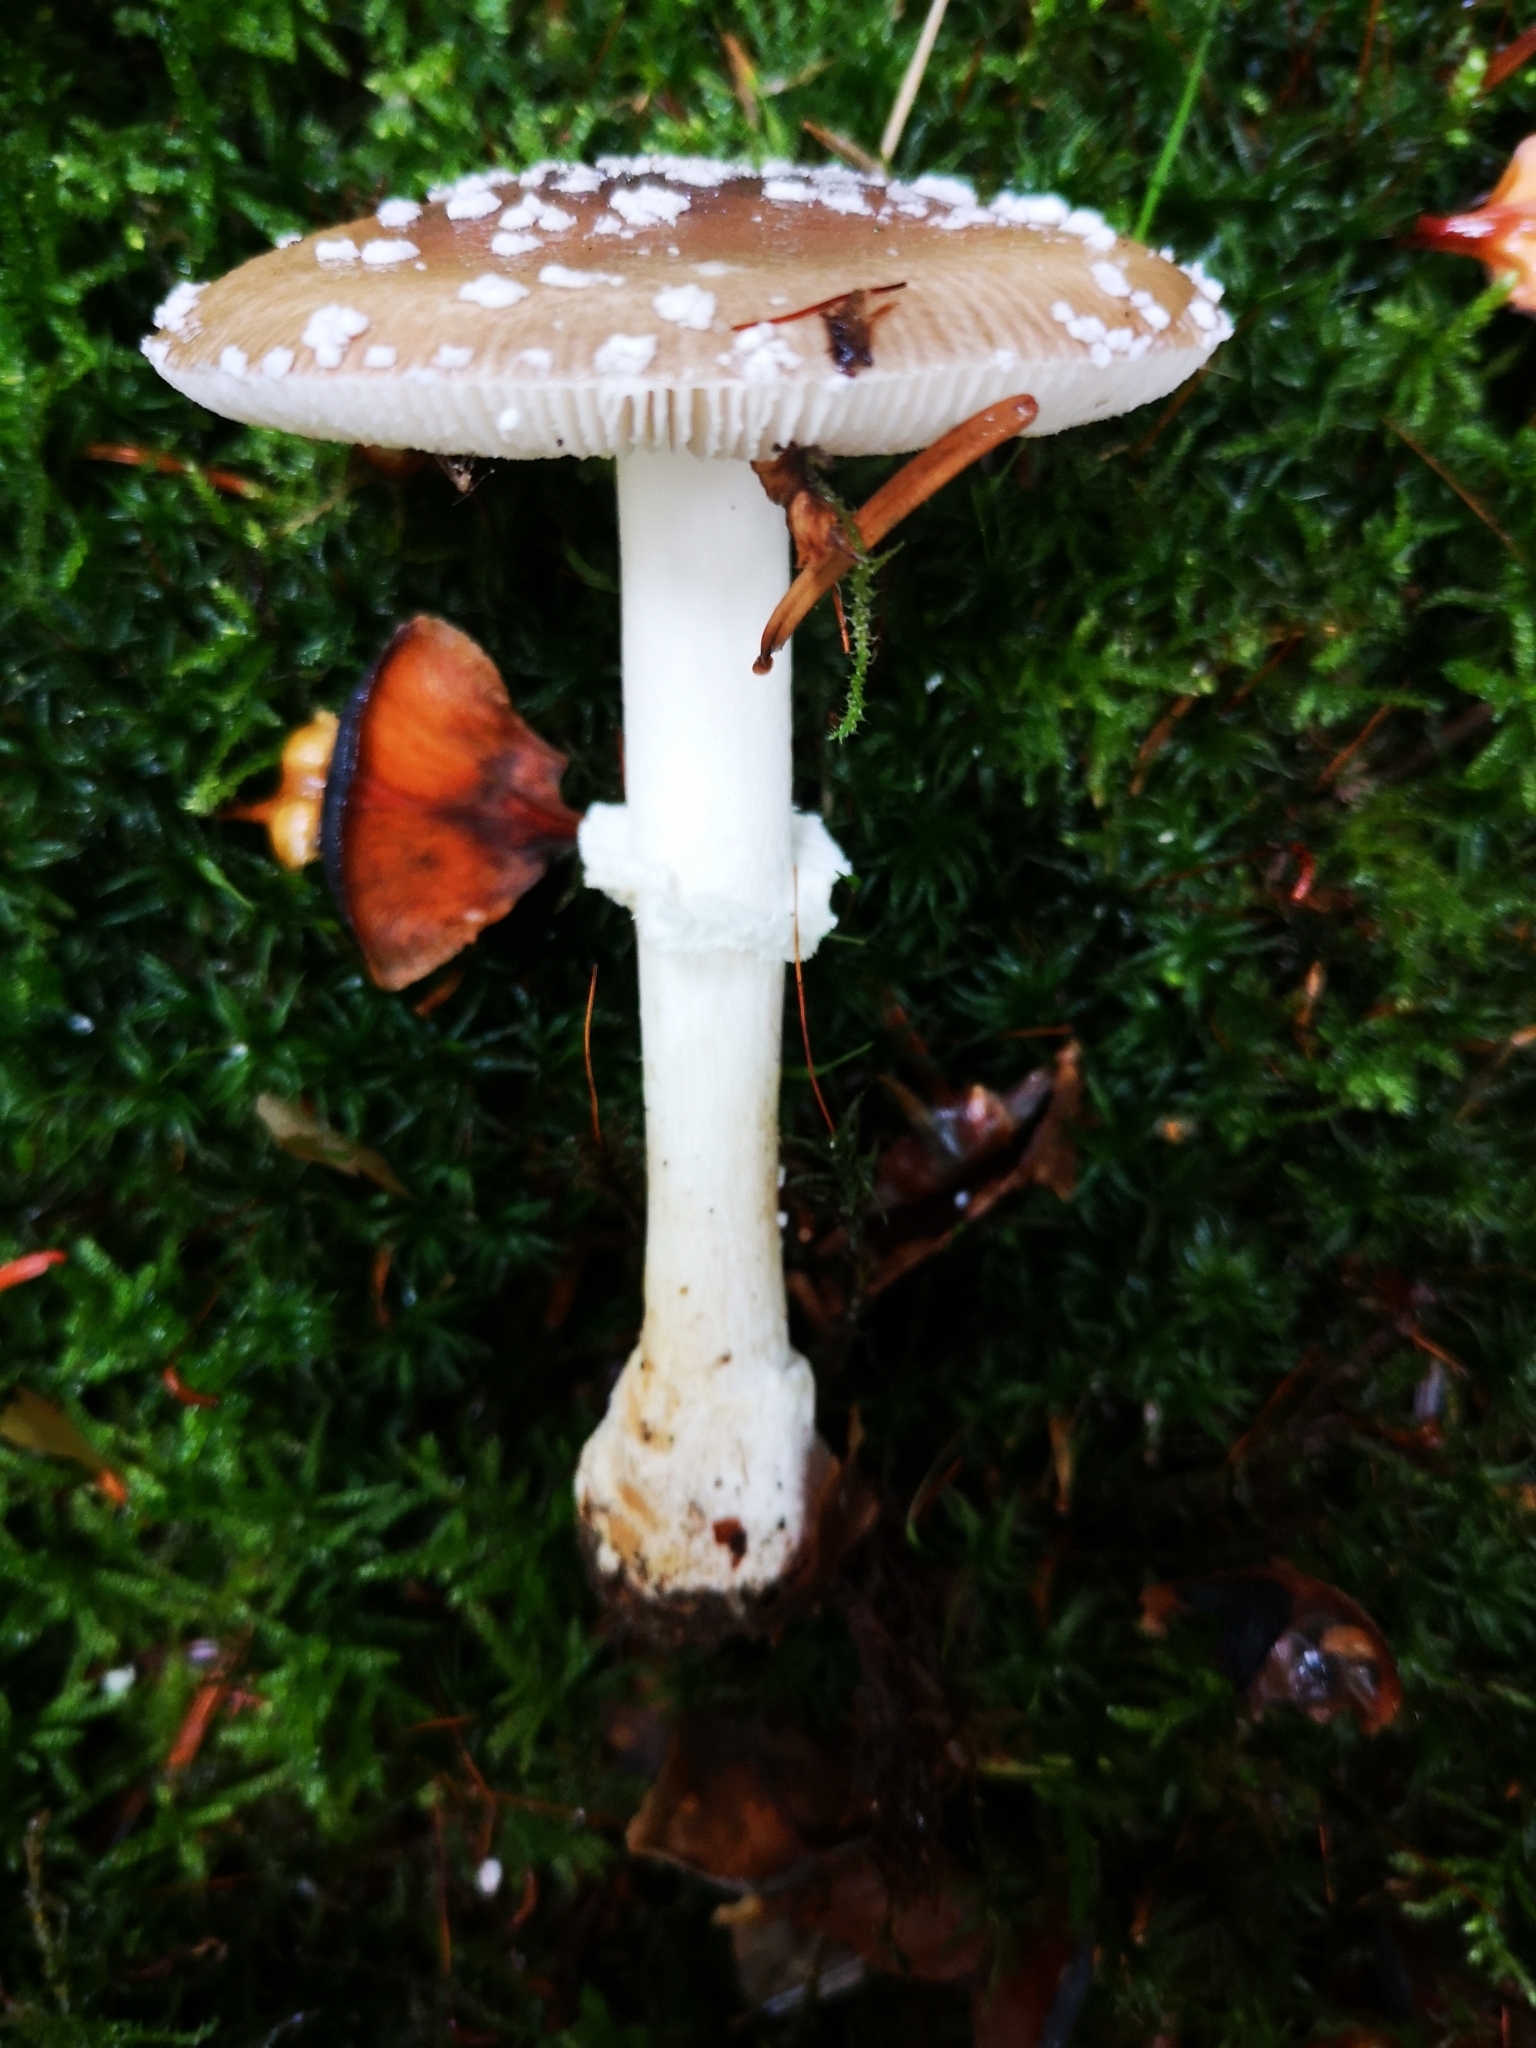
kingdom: Fungi
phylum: Basidiomycota
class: Agaricomycetes
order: Agaricales
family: Amanitaceae
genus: Amanita
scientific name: Amanita pantherina
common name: Panthercap
